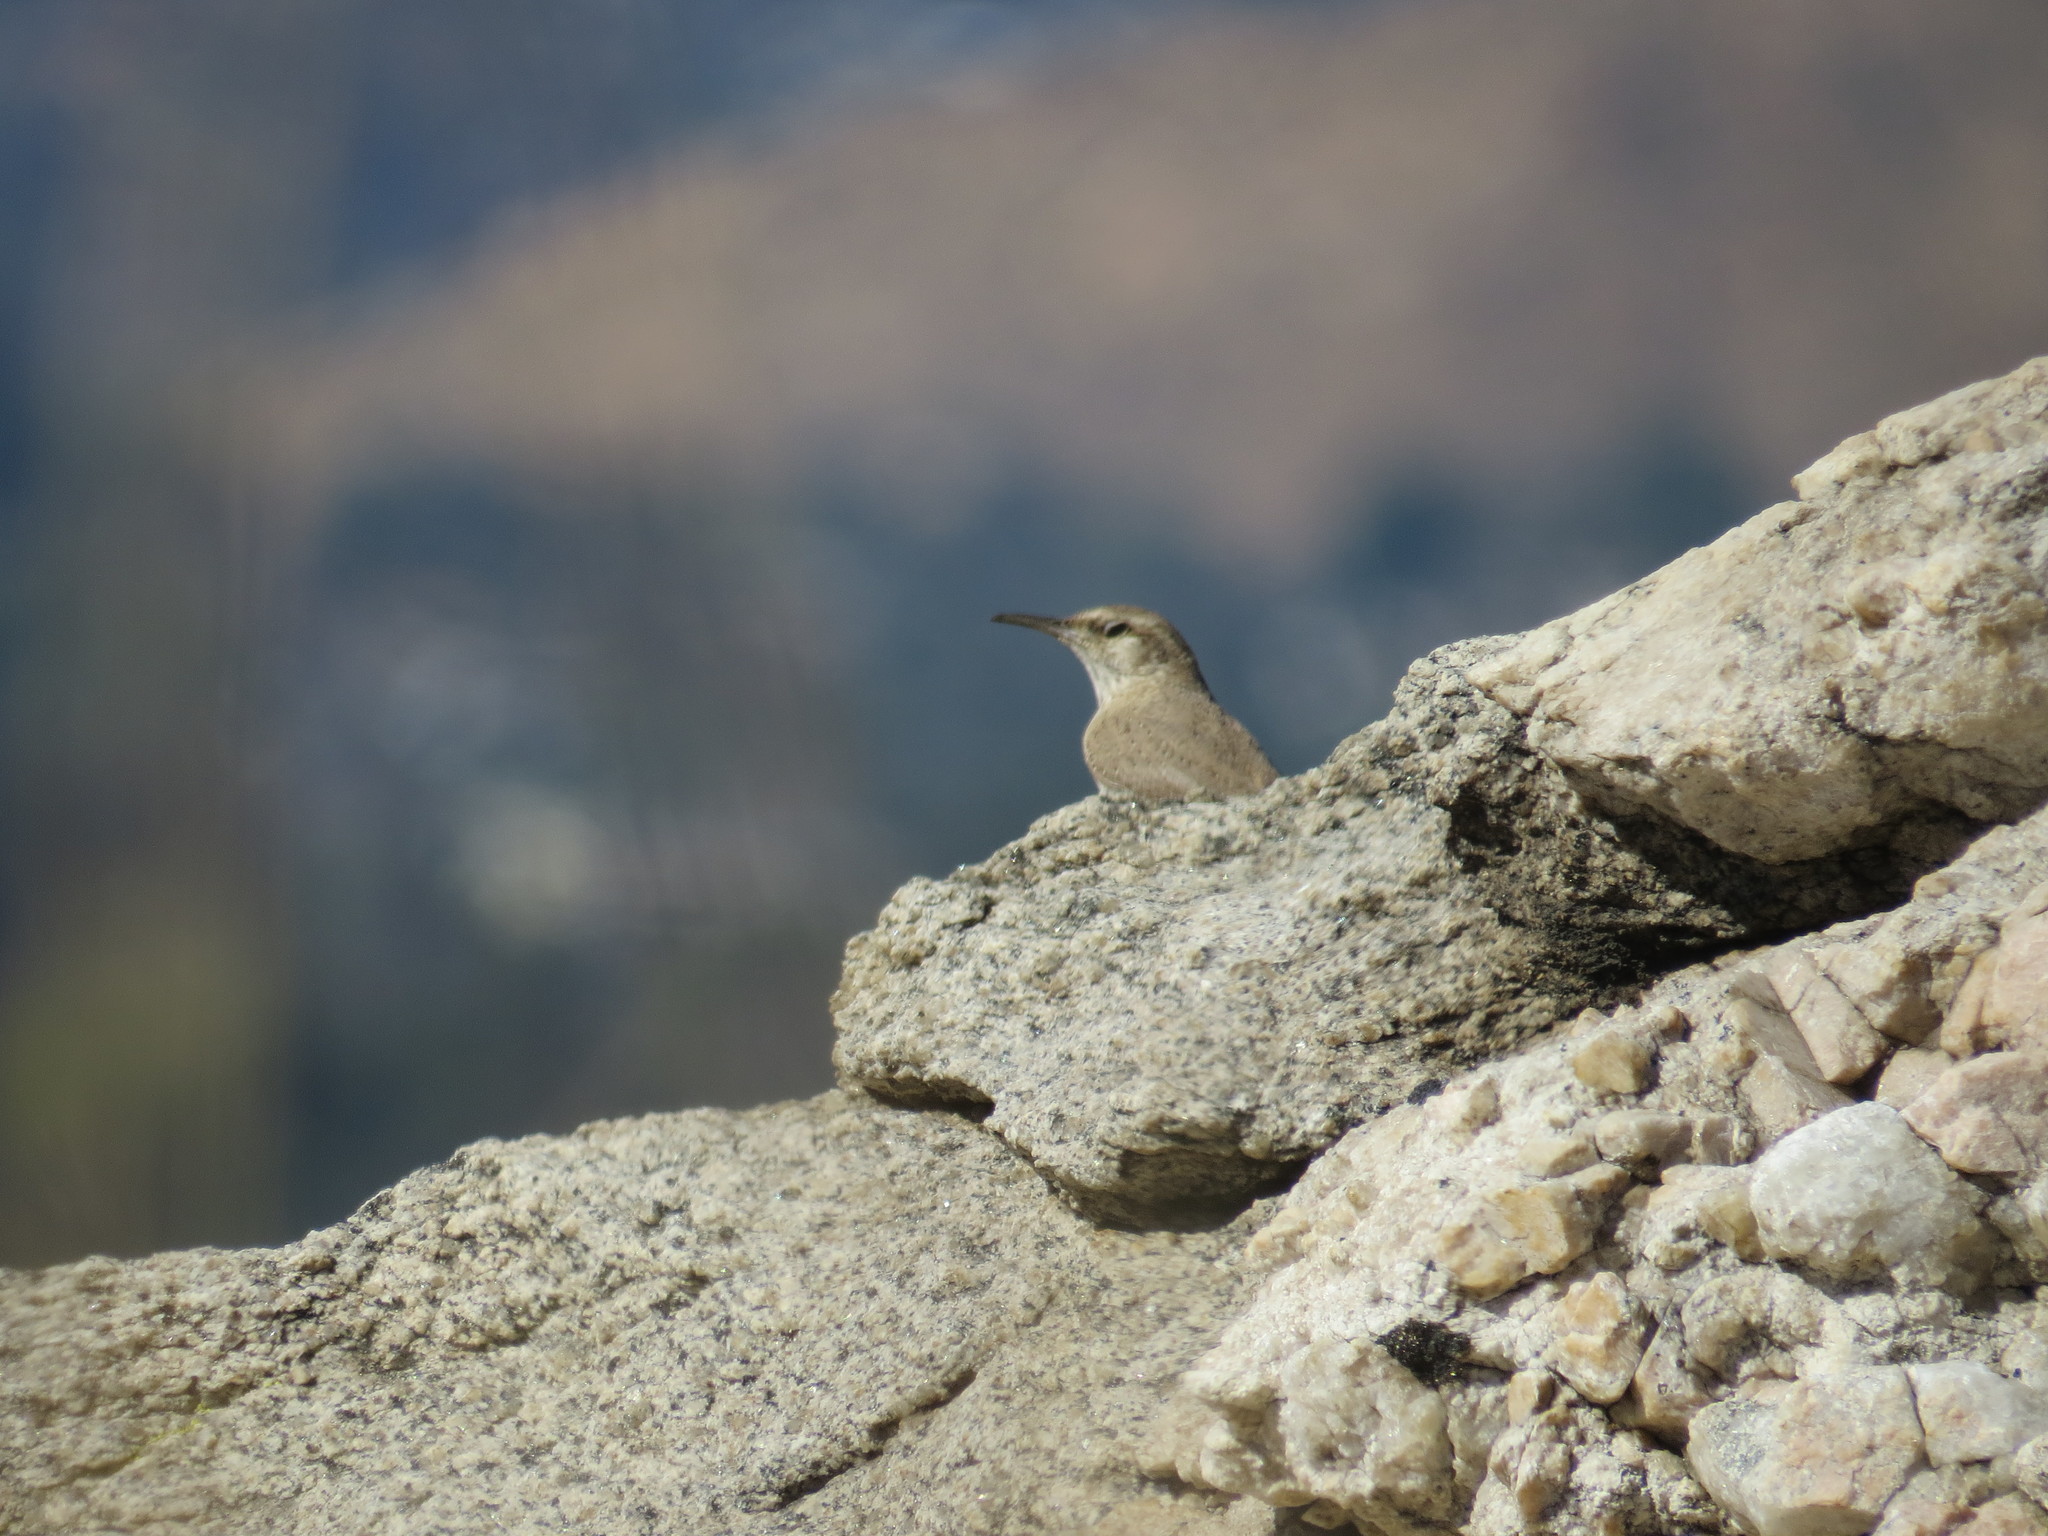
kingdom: Animalia
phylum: Chordata
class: Aves
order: Passeriformes
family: Troglodytidae
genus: Salpinctes
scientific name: Salpinctes obsoletus
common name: Rock wren
